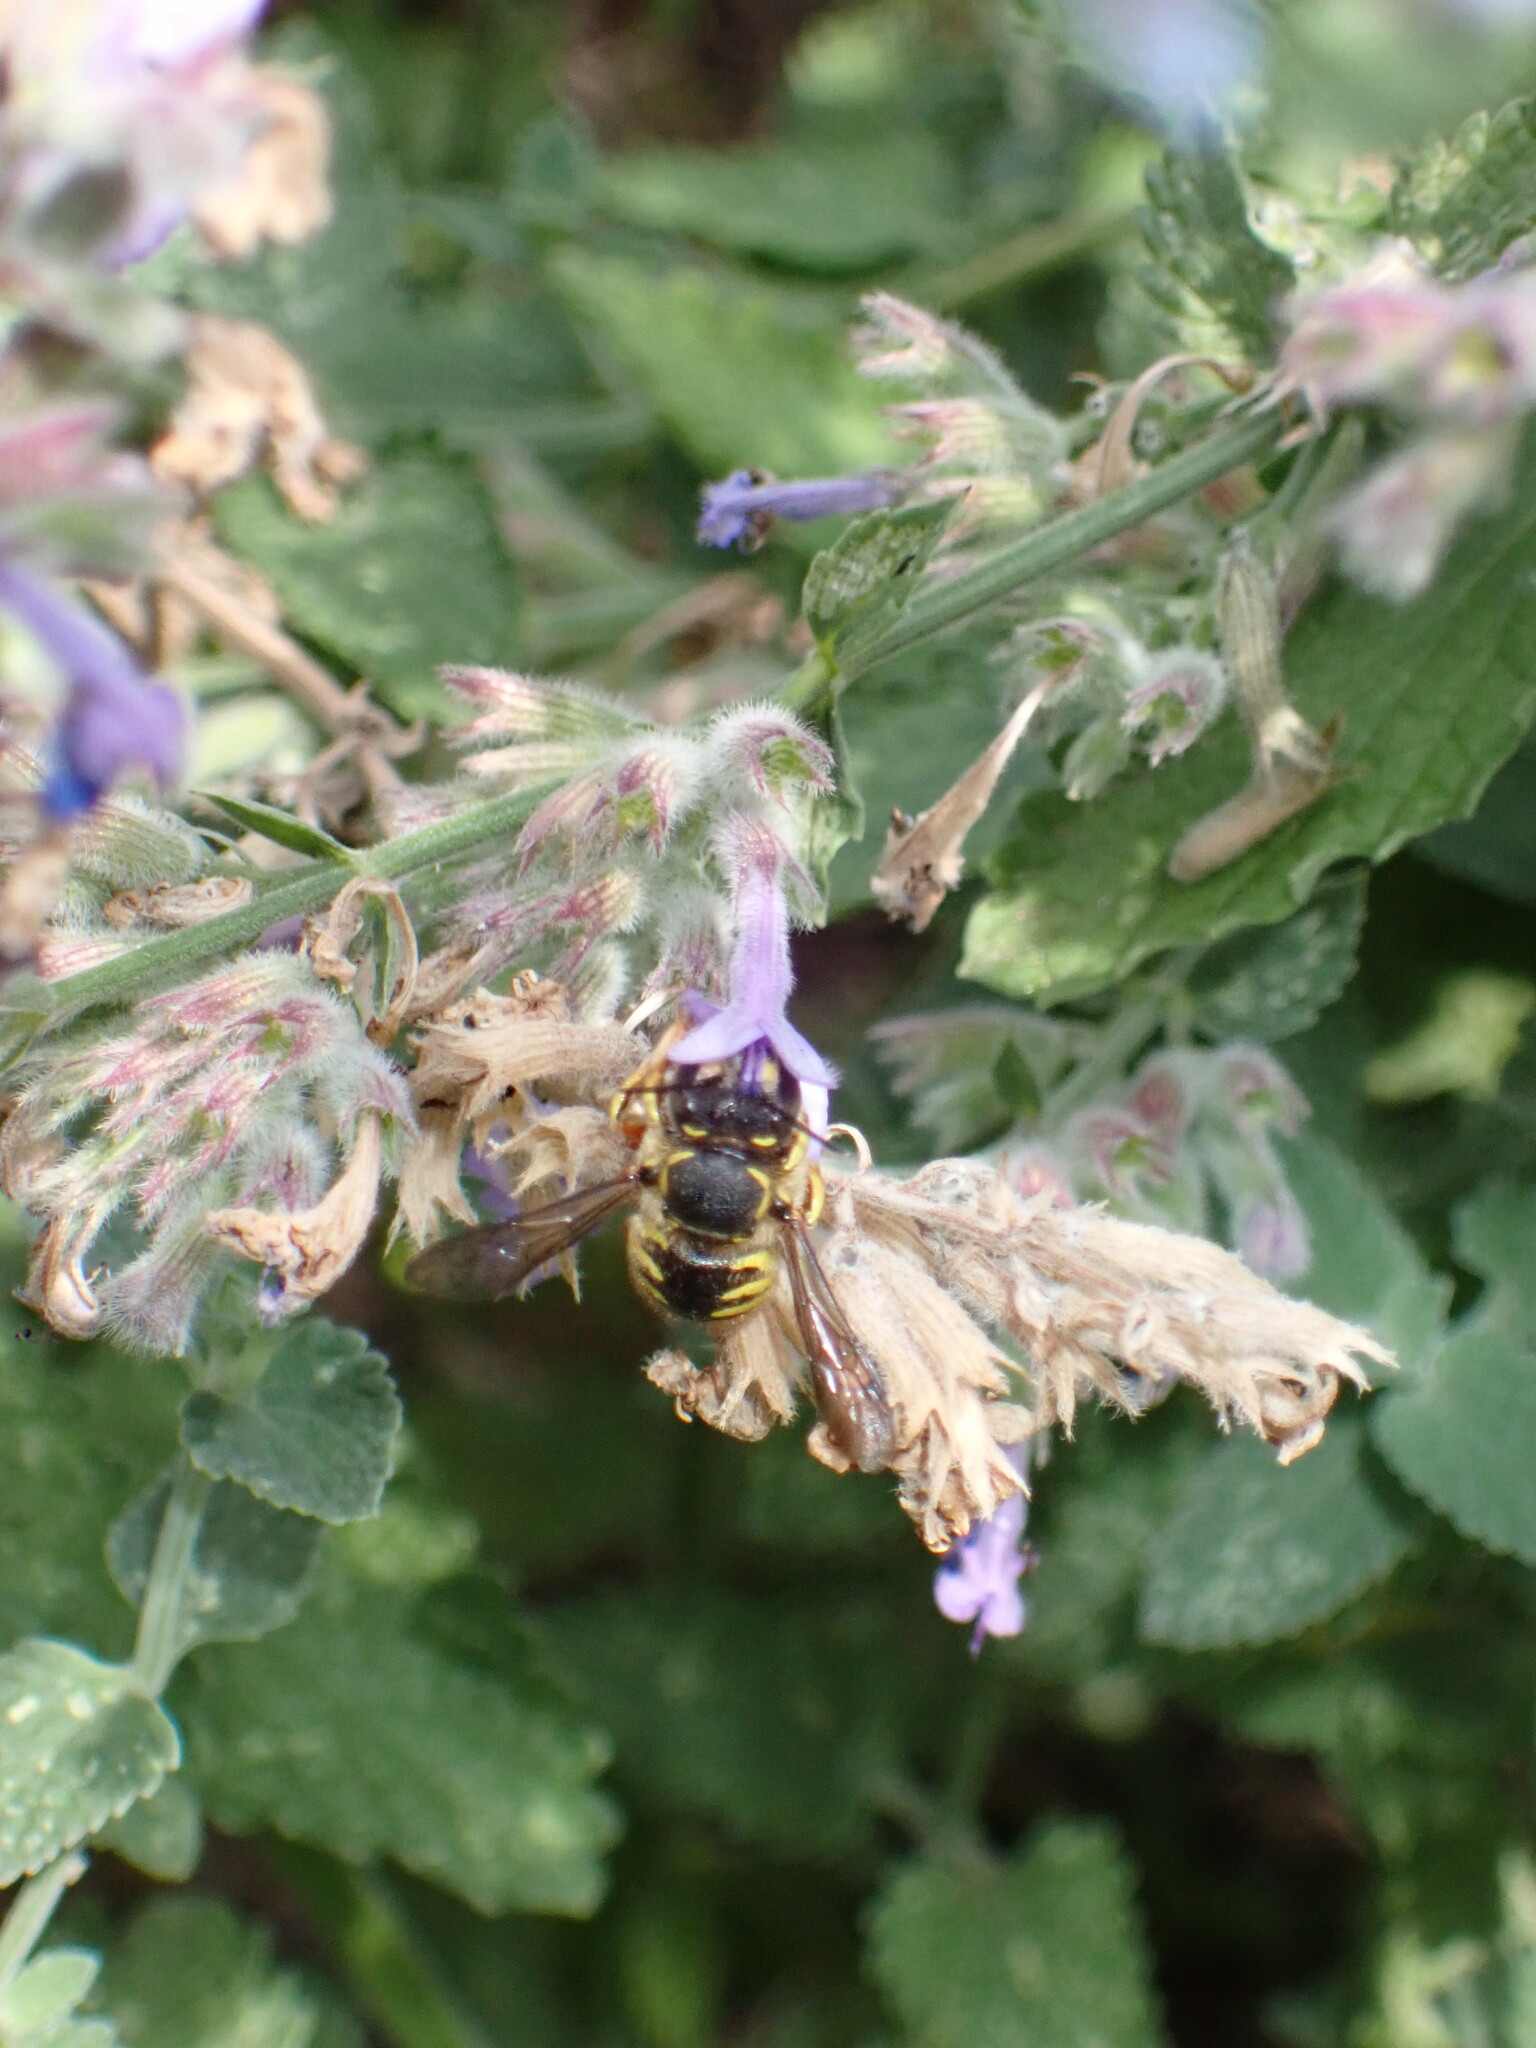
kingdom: Animalia
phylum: Arthropoda
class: Insecta
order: Hymenoptera
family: Megachilidae
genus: Anthidium
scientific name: Anthidium manicatum
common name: Wool carder bee
